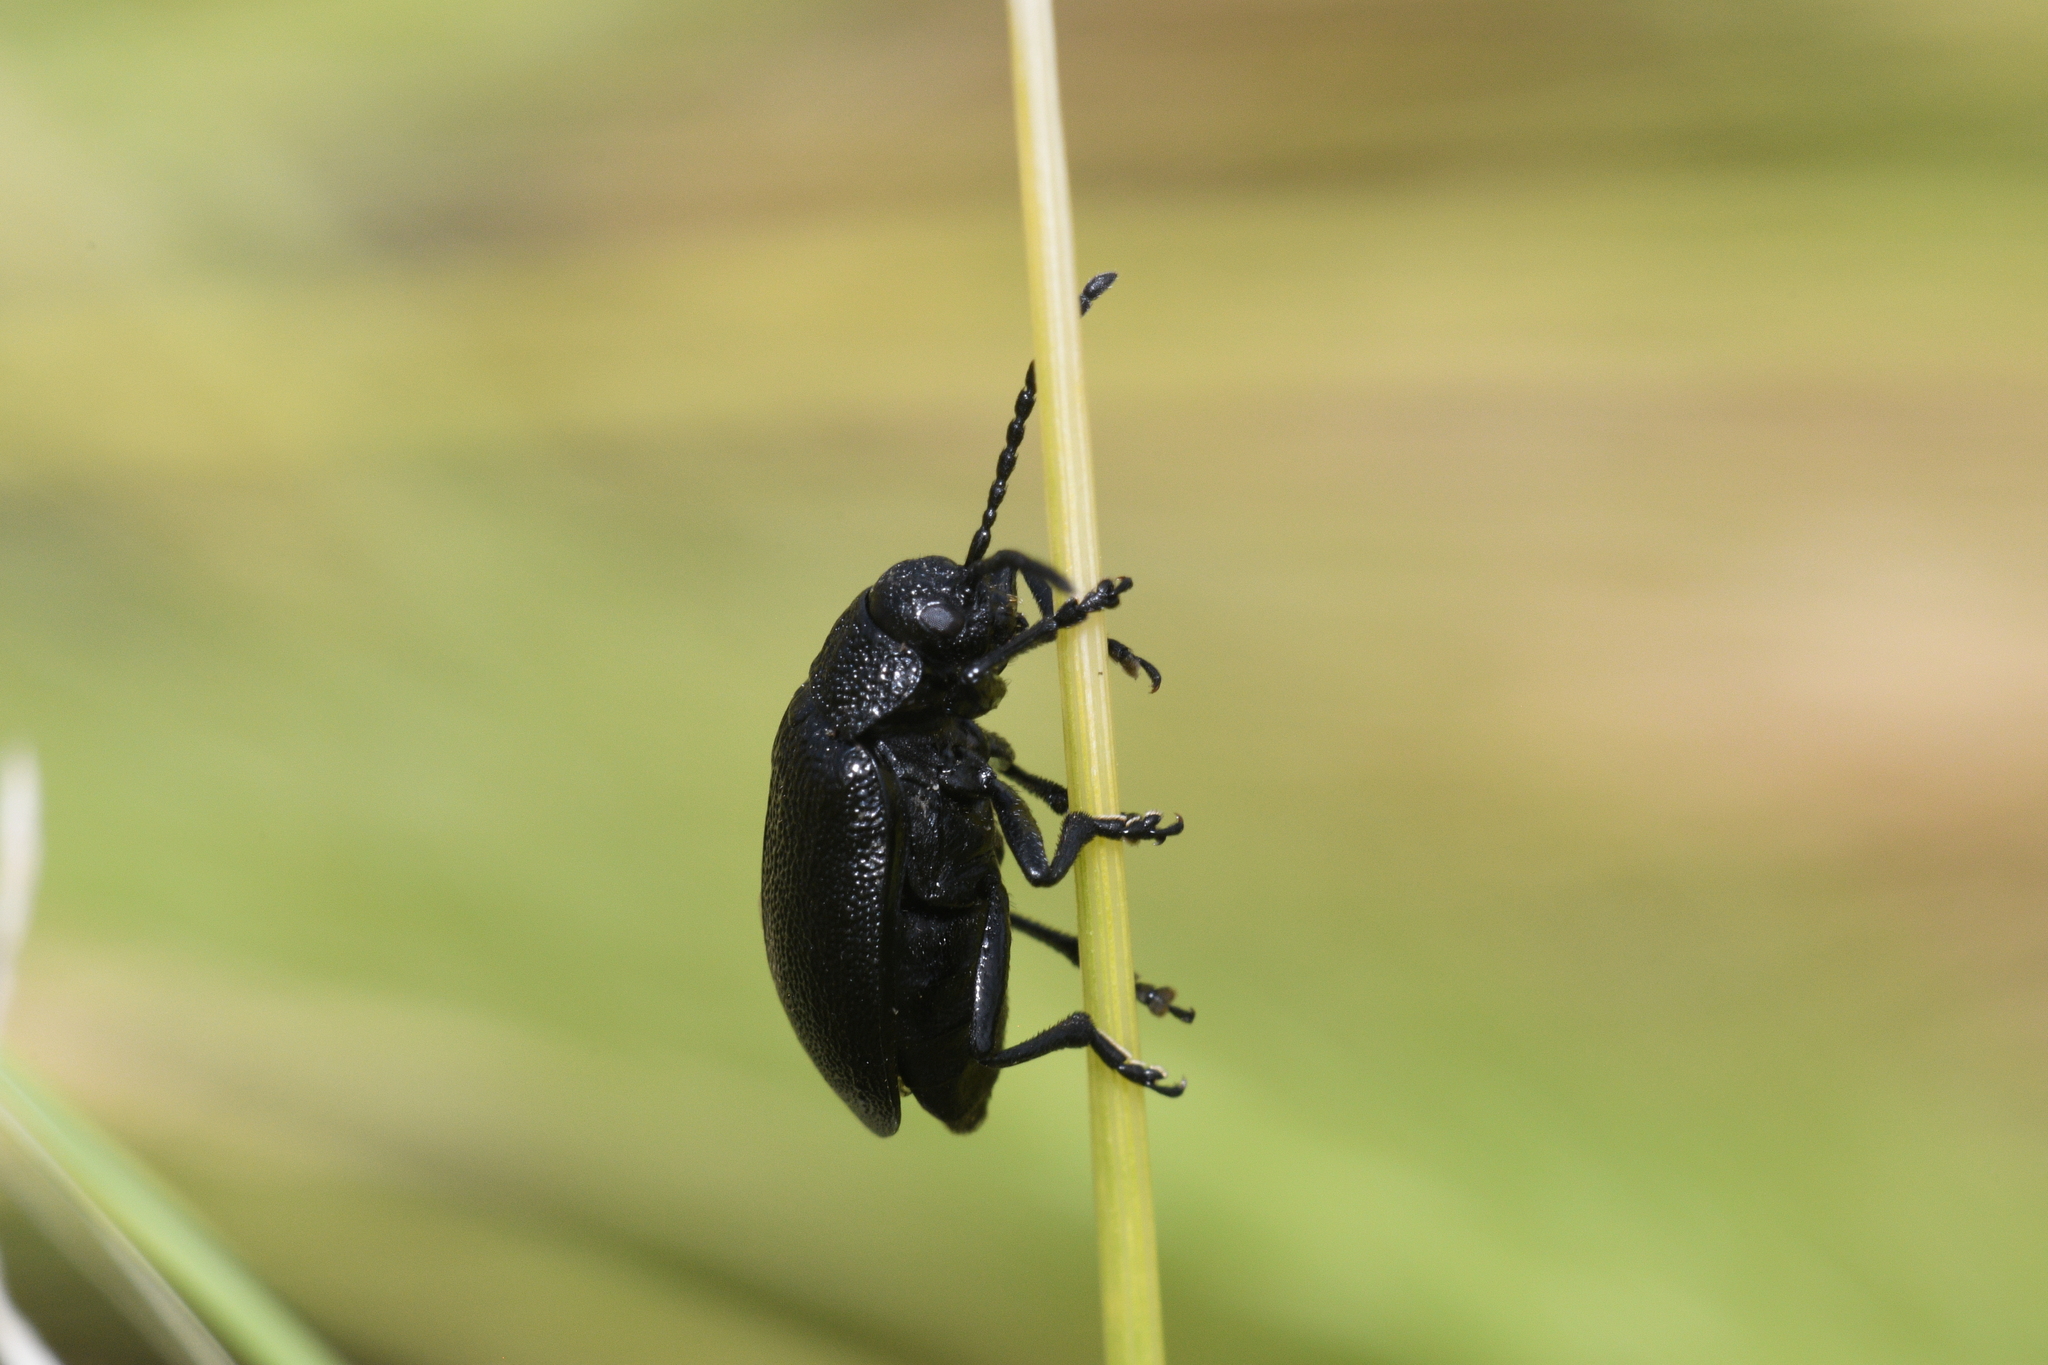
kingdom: Animalia
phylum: Arthropoda
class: Insecta
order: Coleoptera
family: Chrysomelidae
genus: Galeruca
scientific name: Galeruca tanaceti
